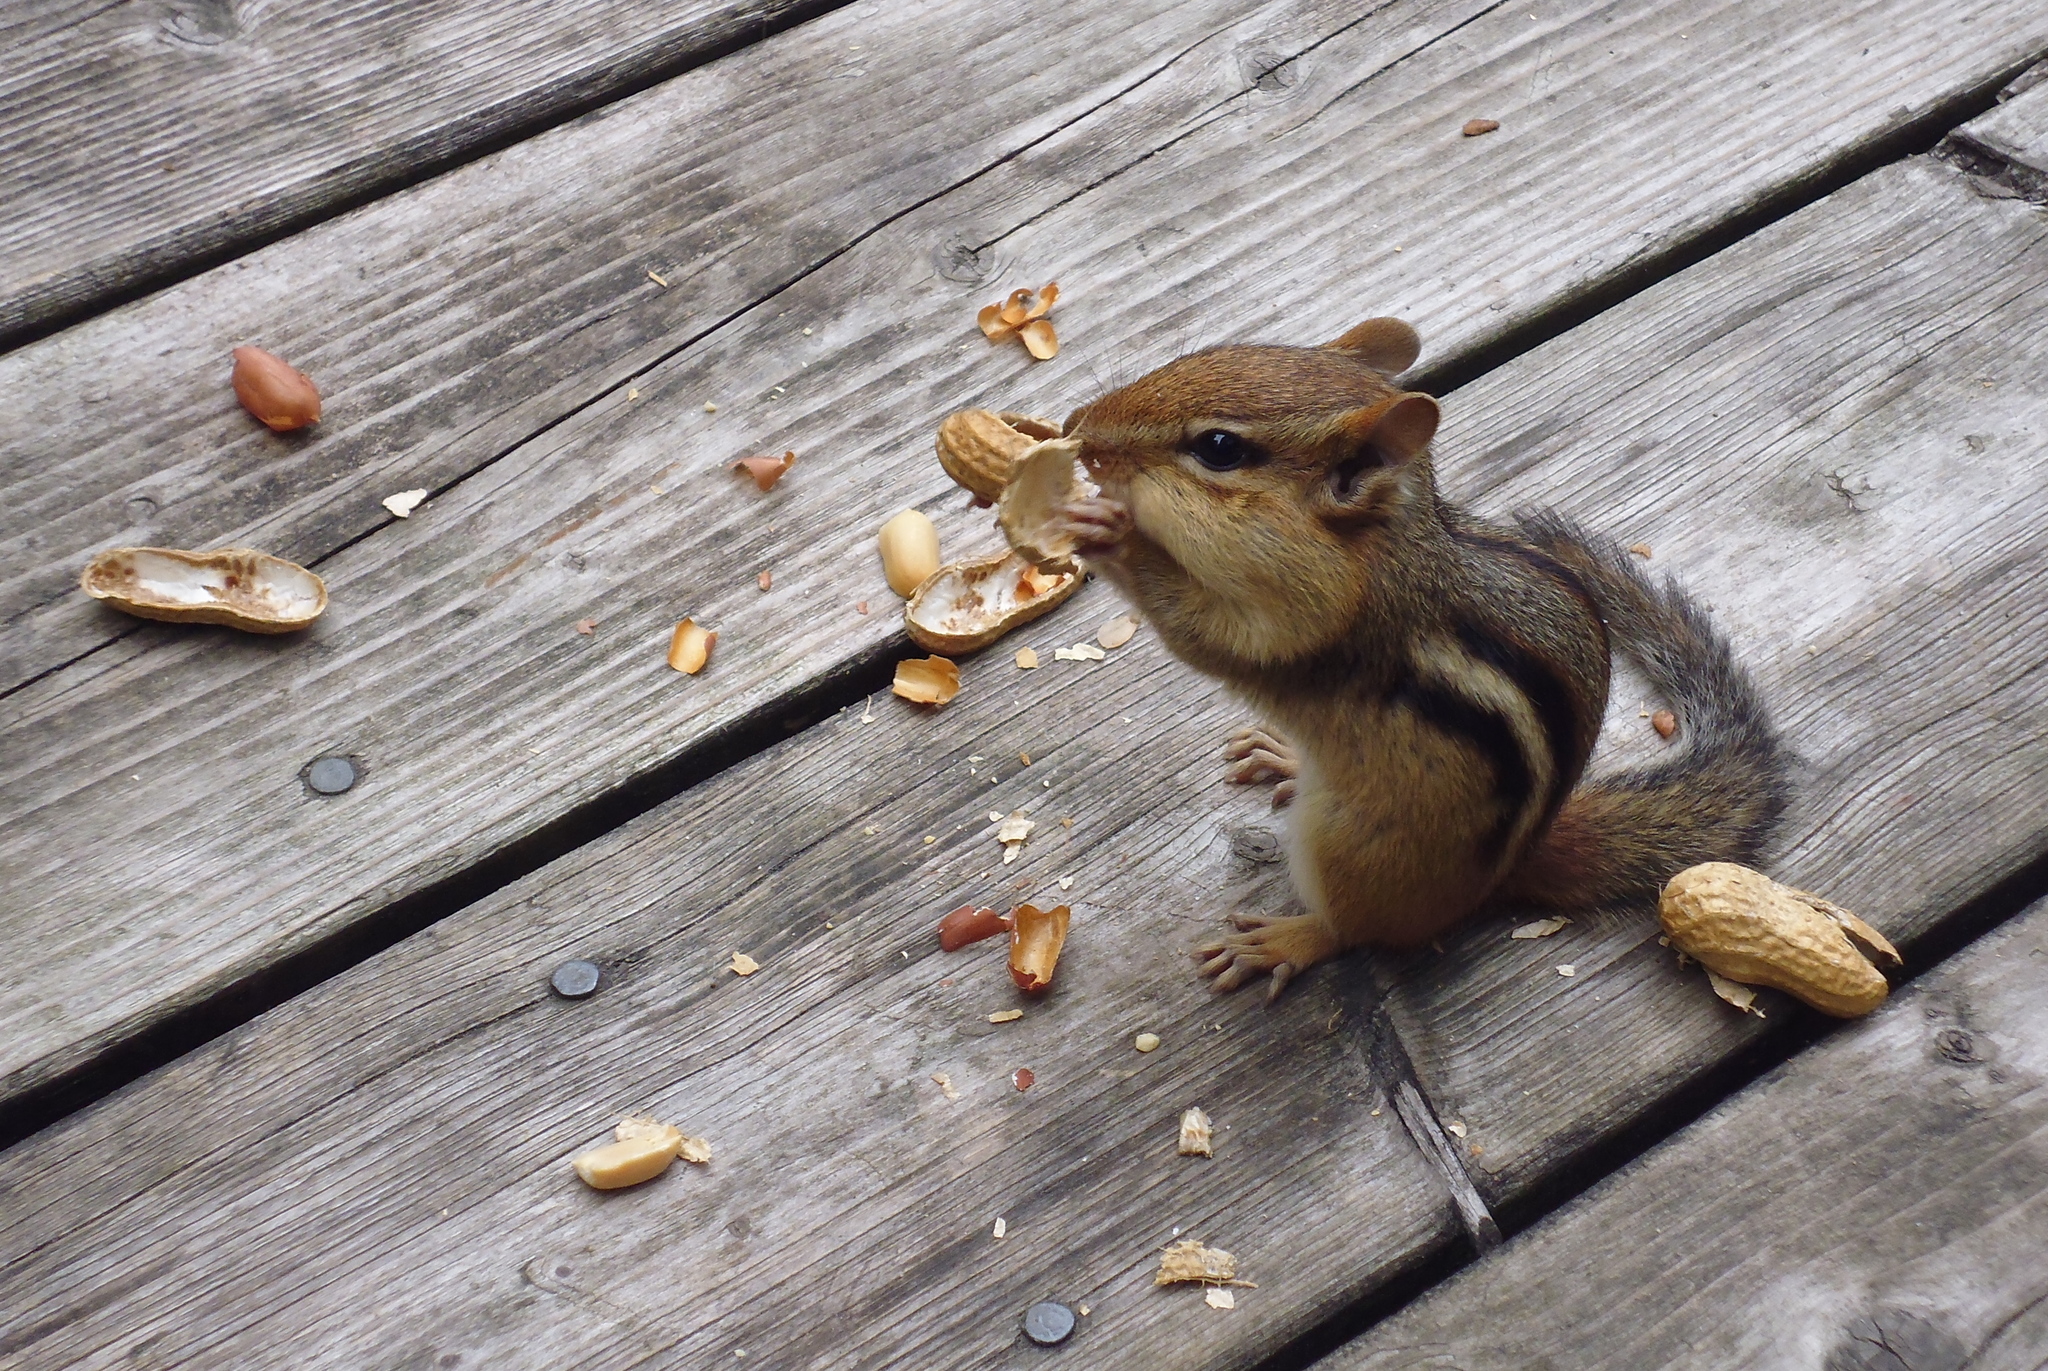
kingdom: Animalia
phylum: Chordata
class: Mammalia
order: Rodentia
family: Sciuridae
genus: Tamias
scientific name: Tamias striatus
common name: Eastern chipmunk
